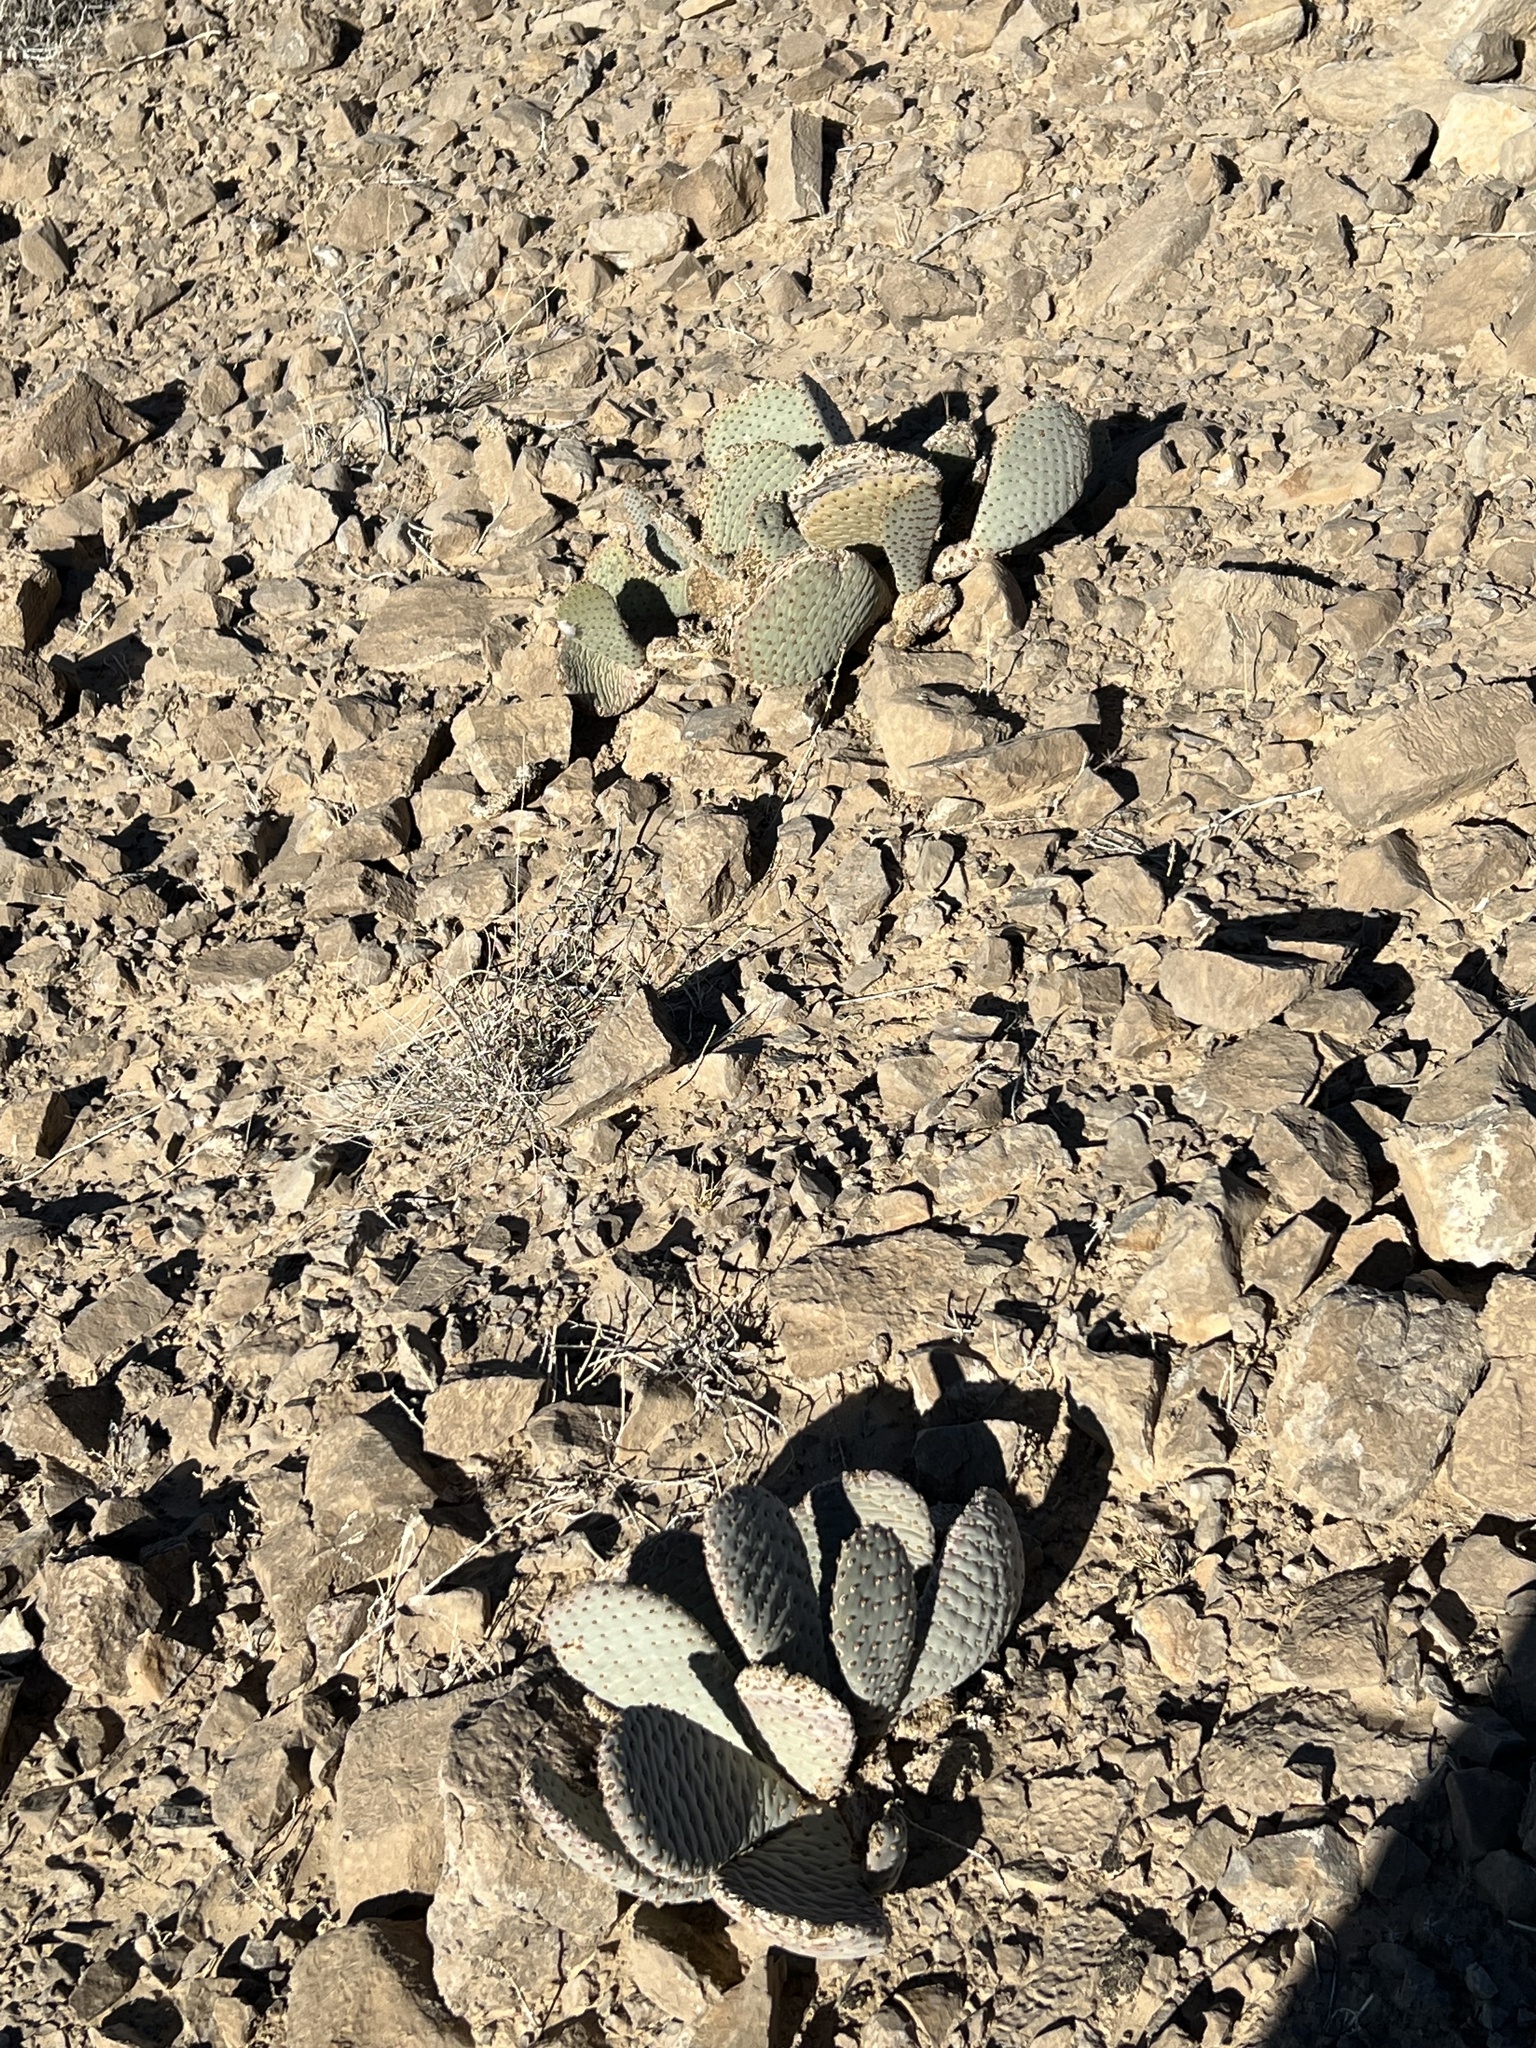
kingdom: Plantae
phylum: Tracheophyta
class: Magnoliopsida
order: Caryophyllales
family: Cactaceae
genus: Opuntia
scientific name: Opuntia basilaris
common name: Beavertail prickly-pear
